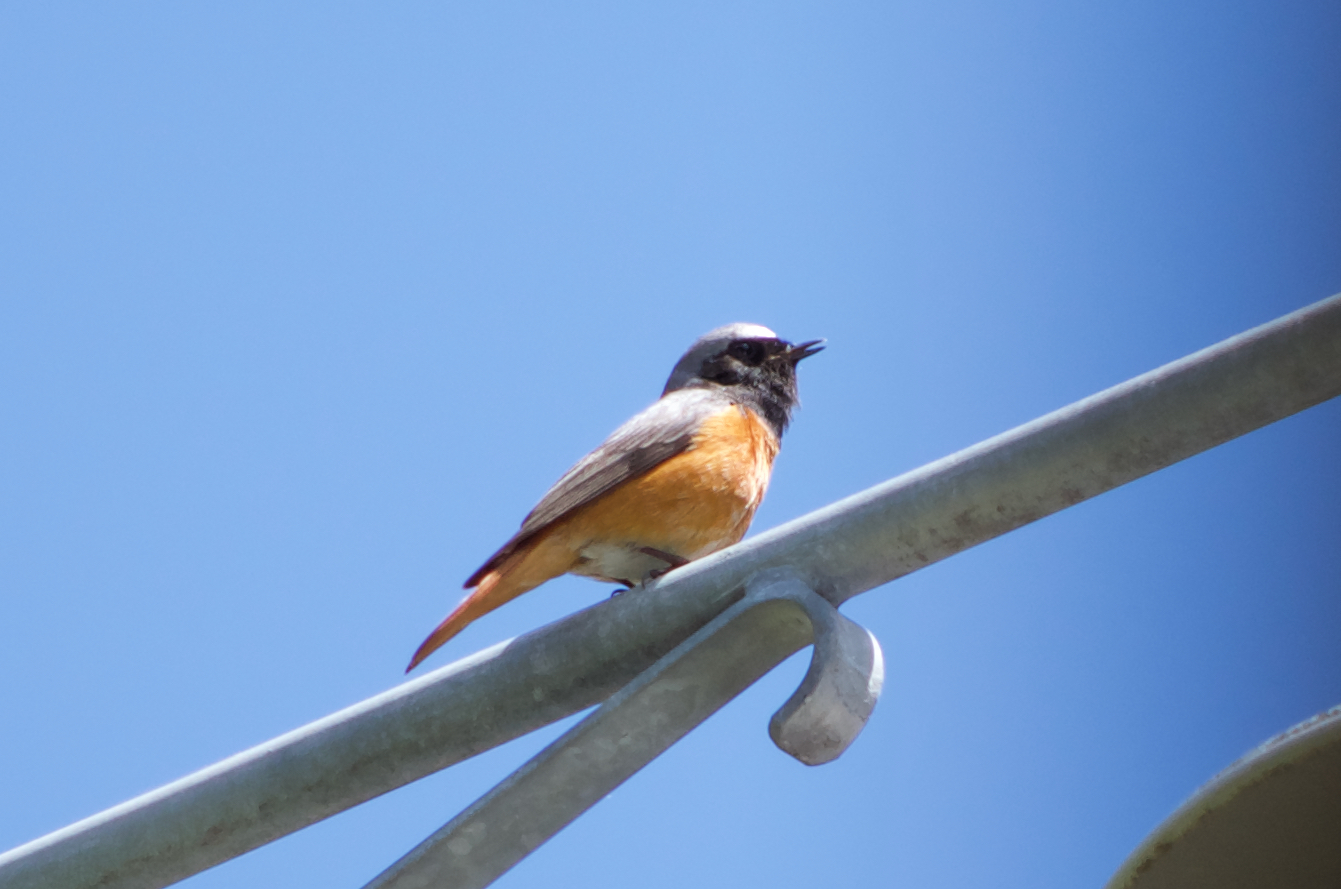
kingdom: Animalia
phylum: Chordata
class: Aves
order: Passeriformes
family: Muscicapidae
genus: Phoenicurus
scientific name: Phoenicurus phoenicurus
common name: Common redstart
